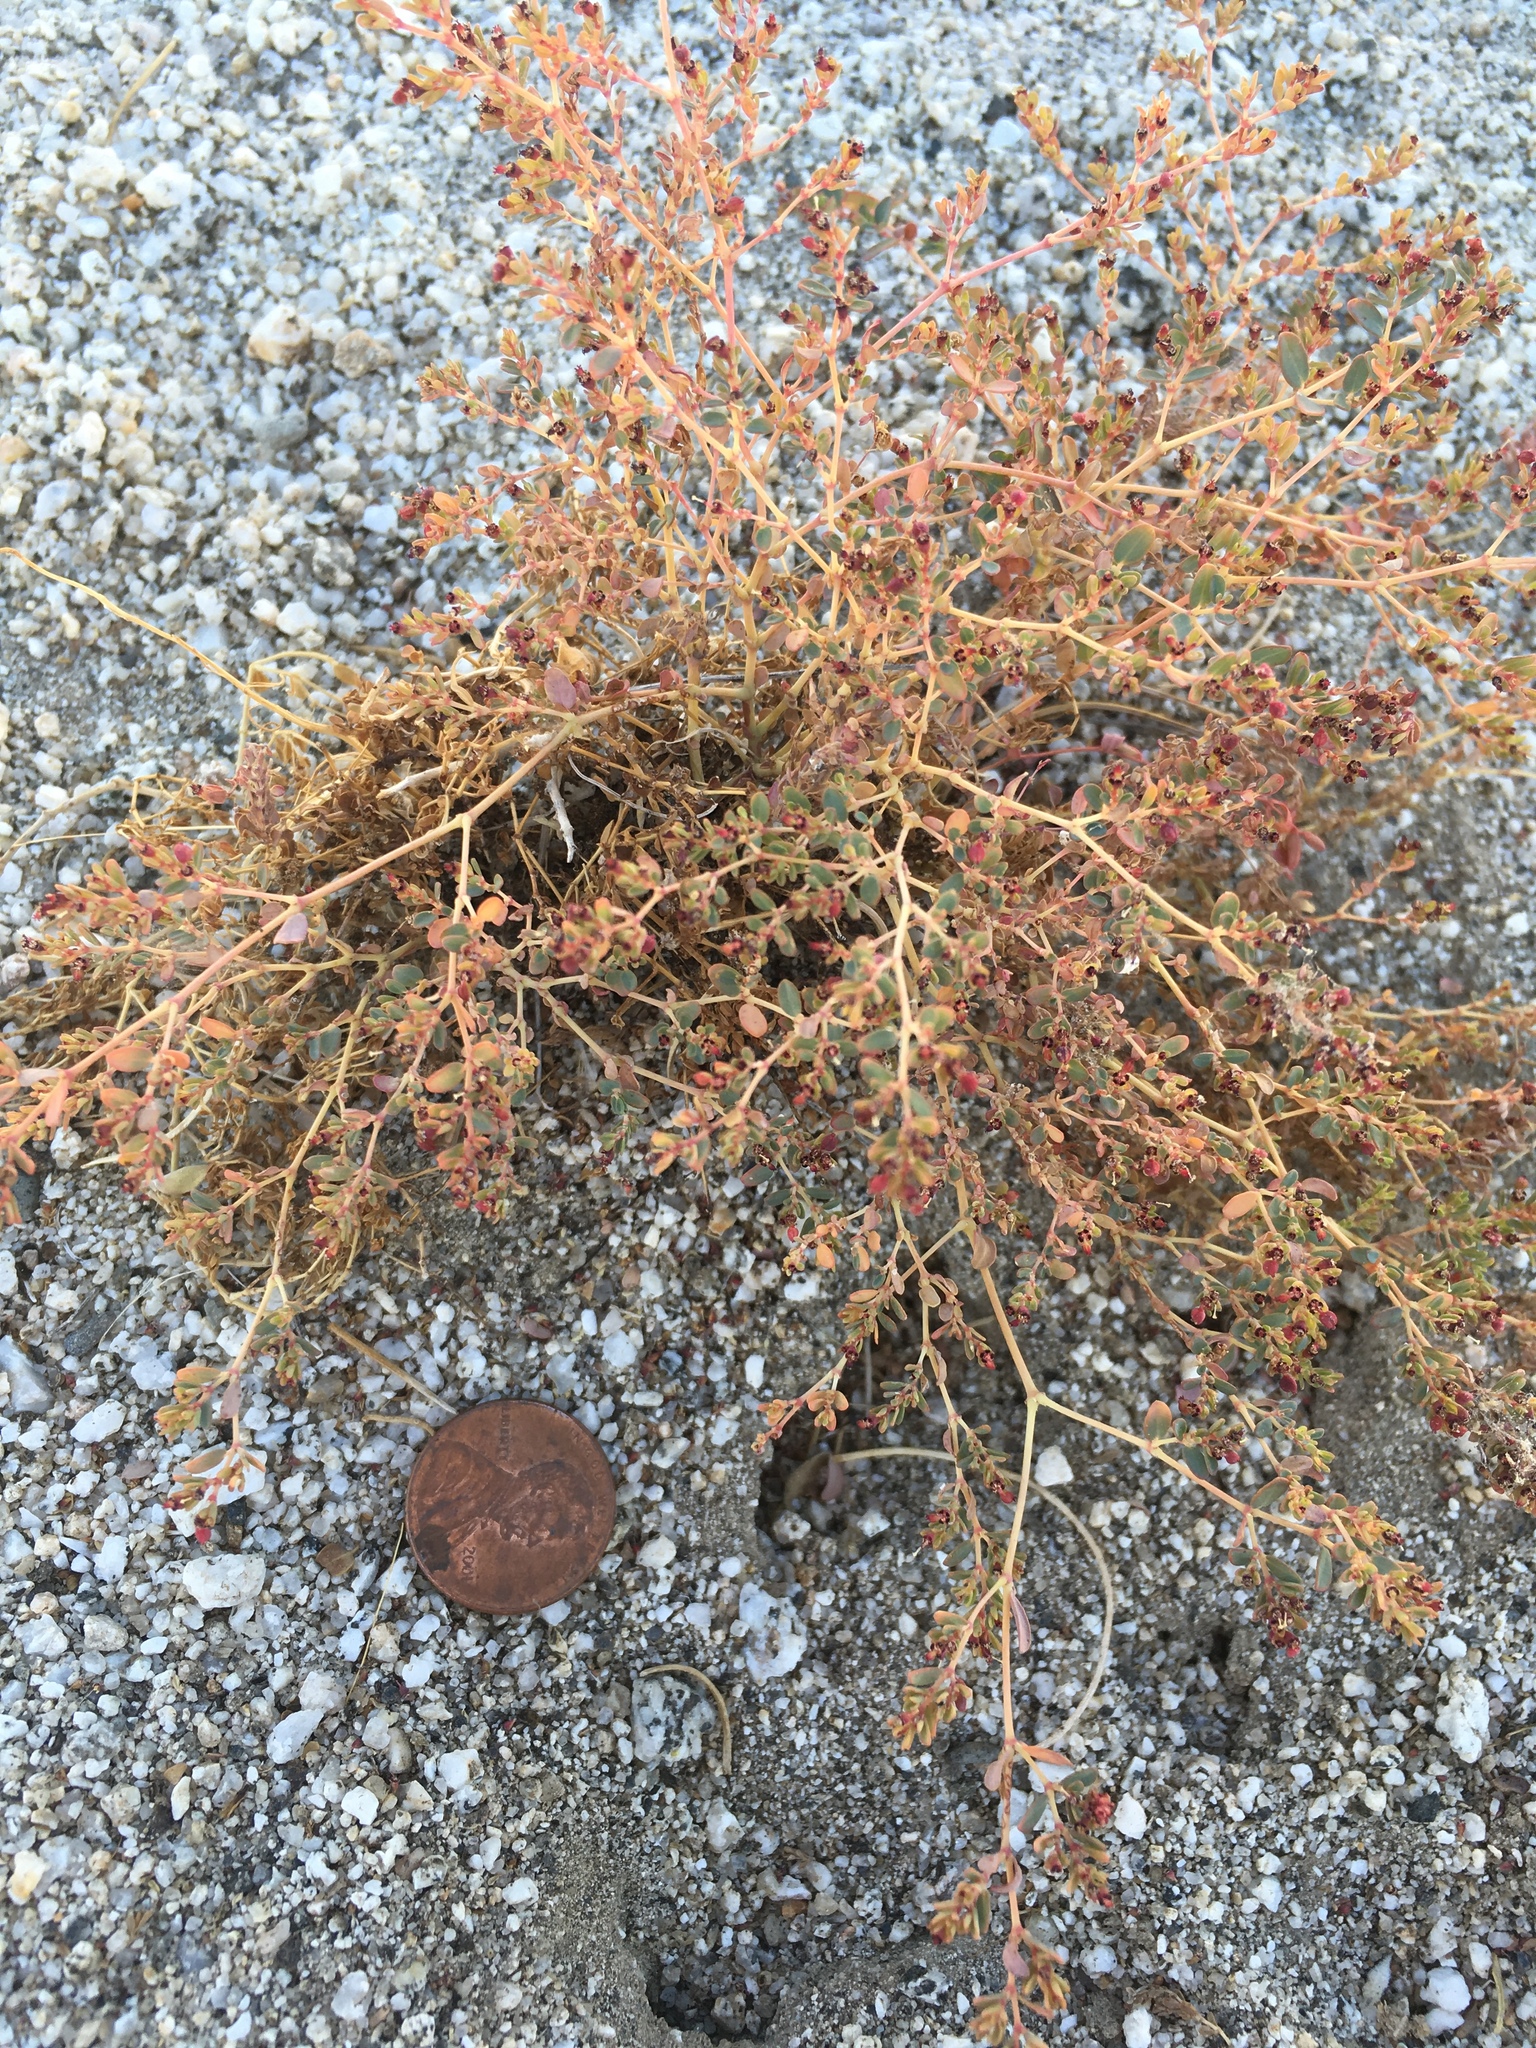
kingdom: Plantae
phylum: Tracheophyta
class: Magnoliopsida
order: Malpighiales
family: Euphorbiaceae
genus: Euphorbia
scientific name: Euphorbia polycarpa
